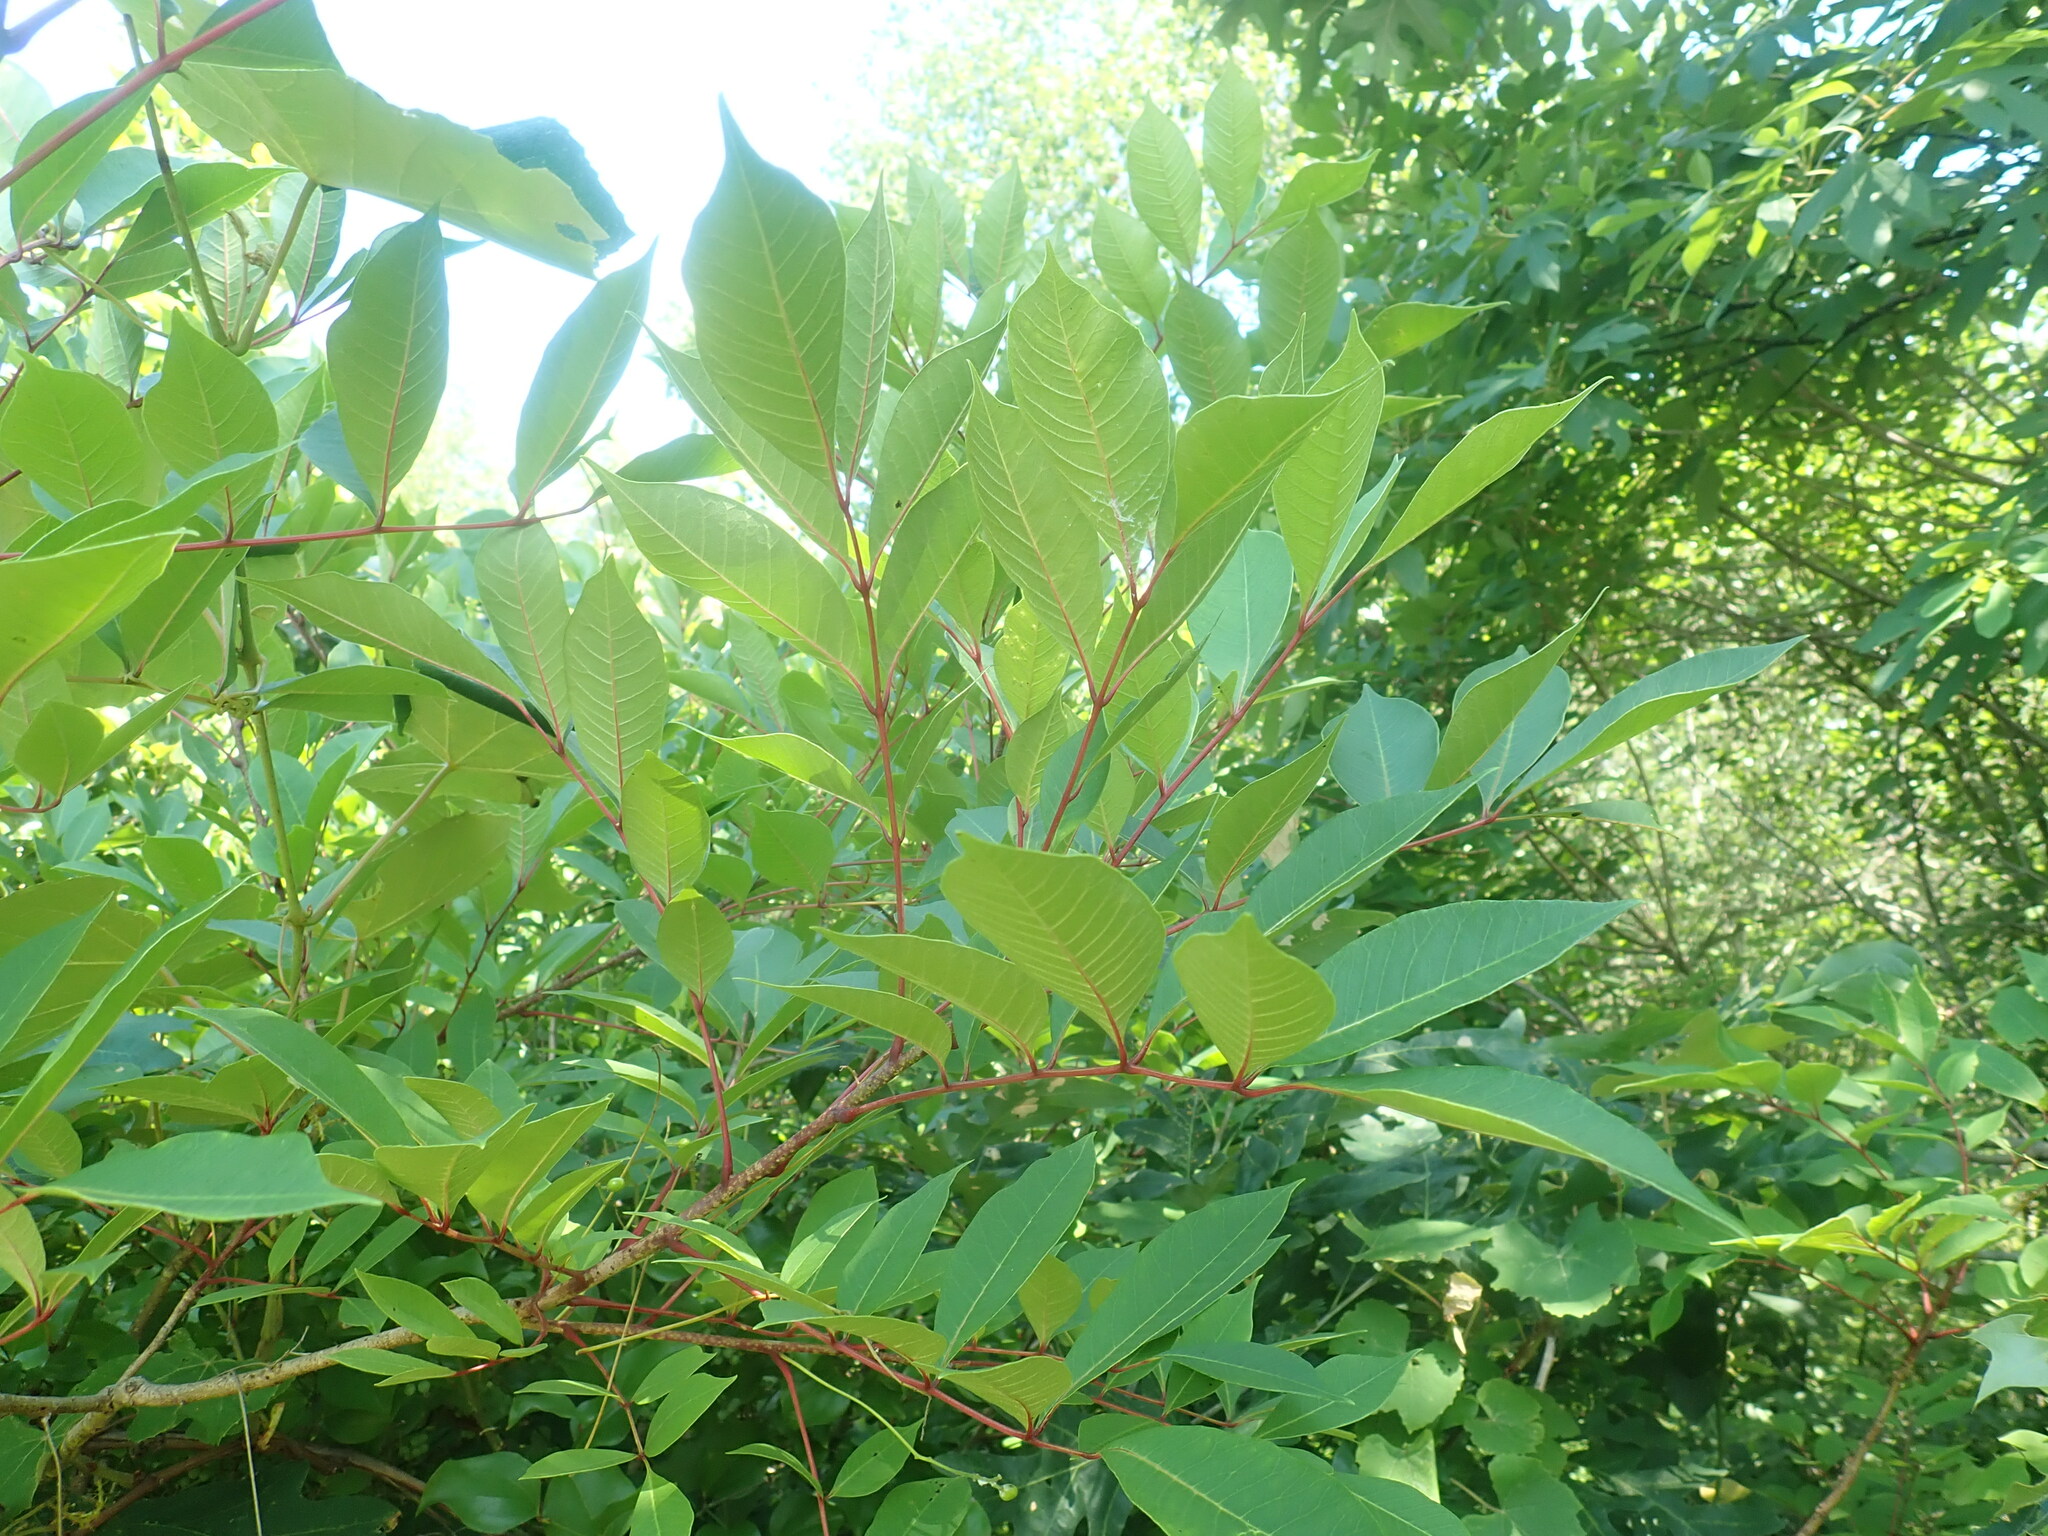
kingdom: Plantae
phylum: Tracheophyta
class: Magnoliopsida
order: Sapindales
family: Anacardiaceae
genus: Toxicodendron
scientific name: Toxicodendron vernix
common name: Poison sumac
